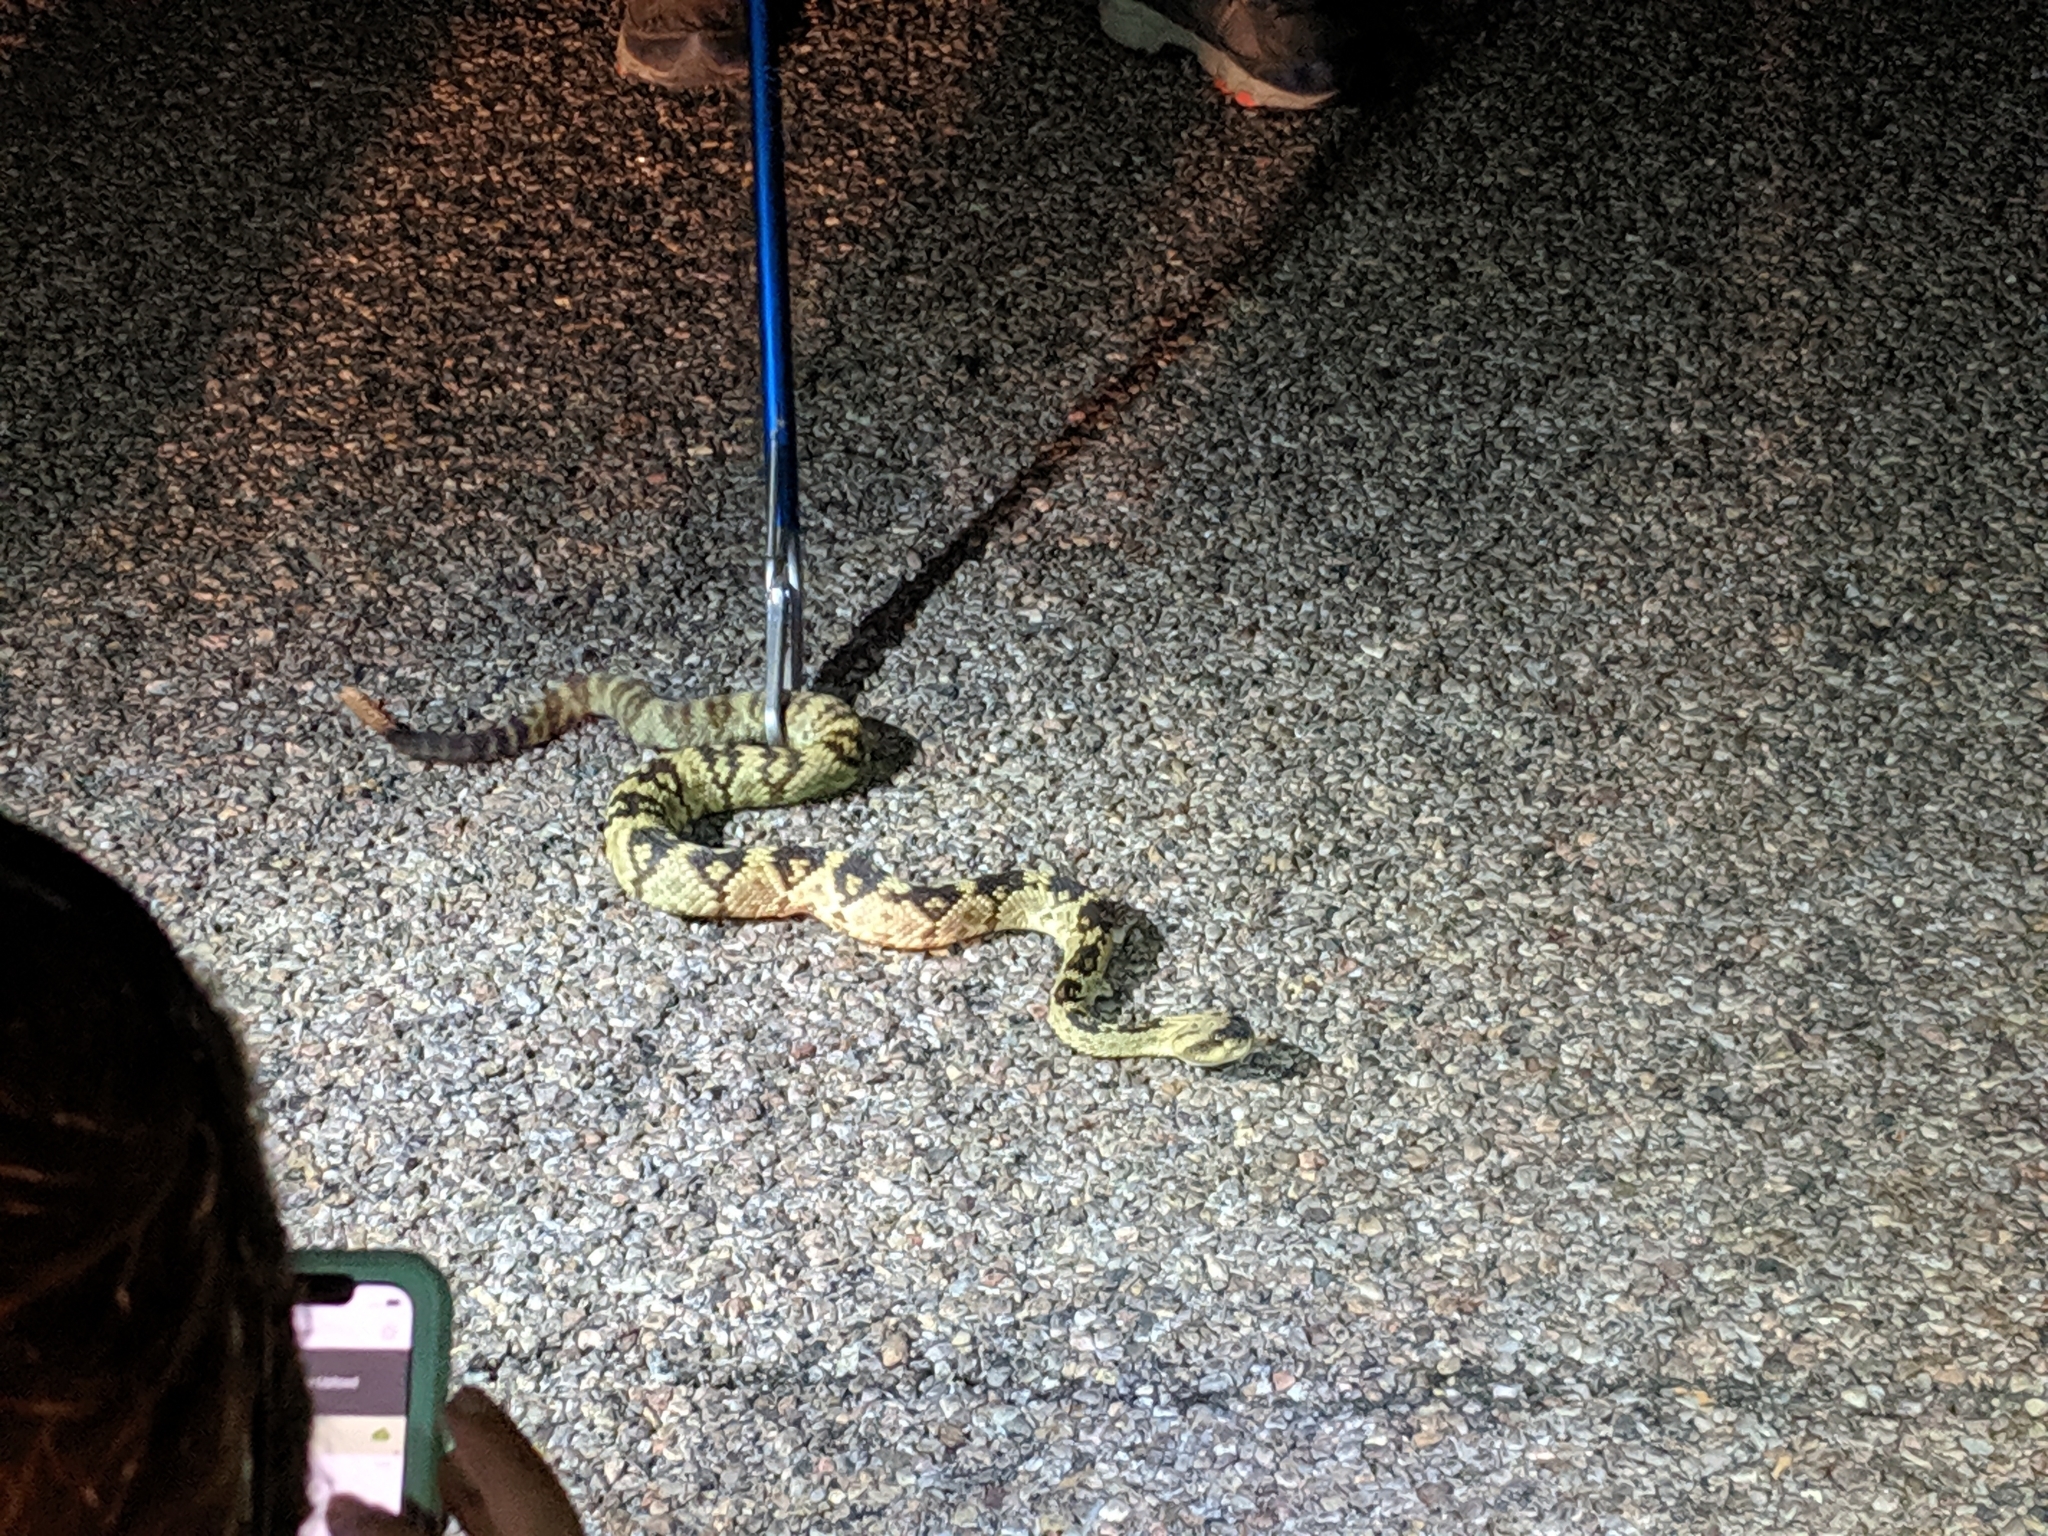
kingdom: Animalia
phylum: Chordata
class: Squamata
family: Viperidae
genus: Crotalus
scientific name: Crotalus molossus
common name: Black tailed rattlesnake
